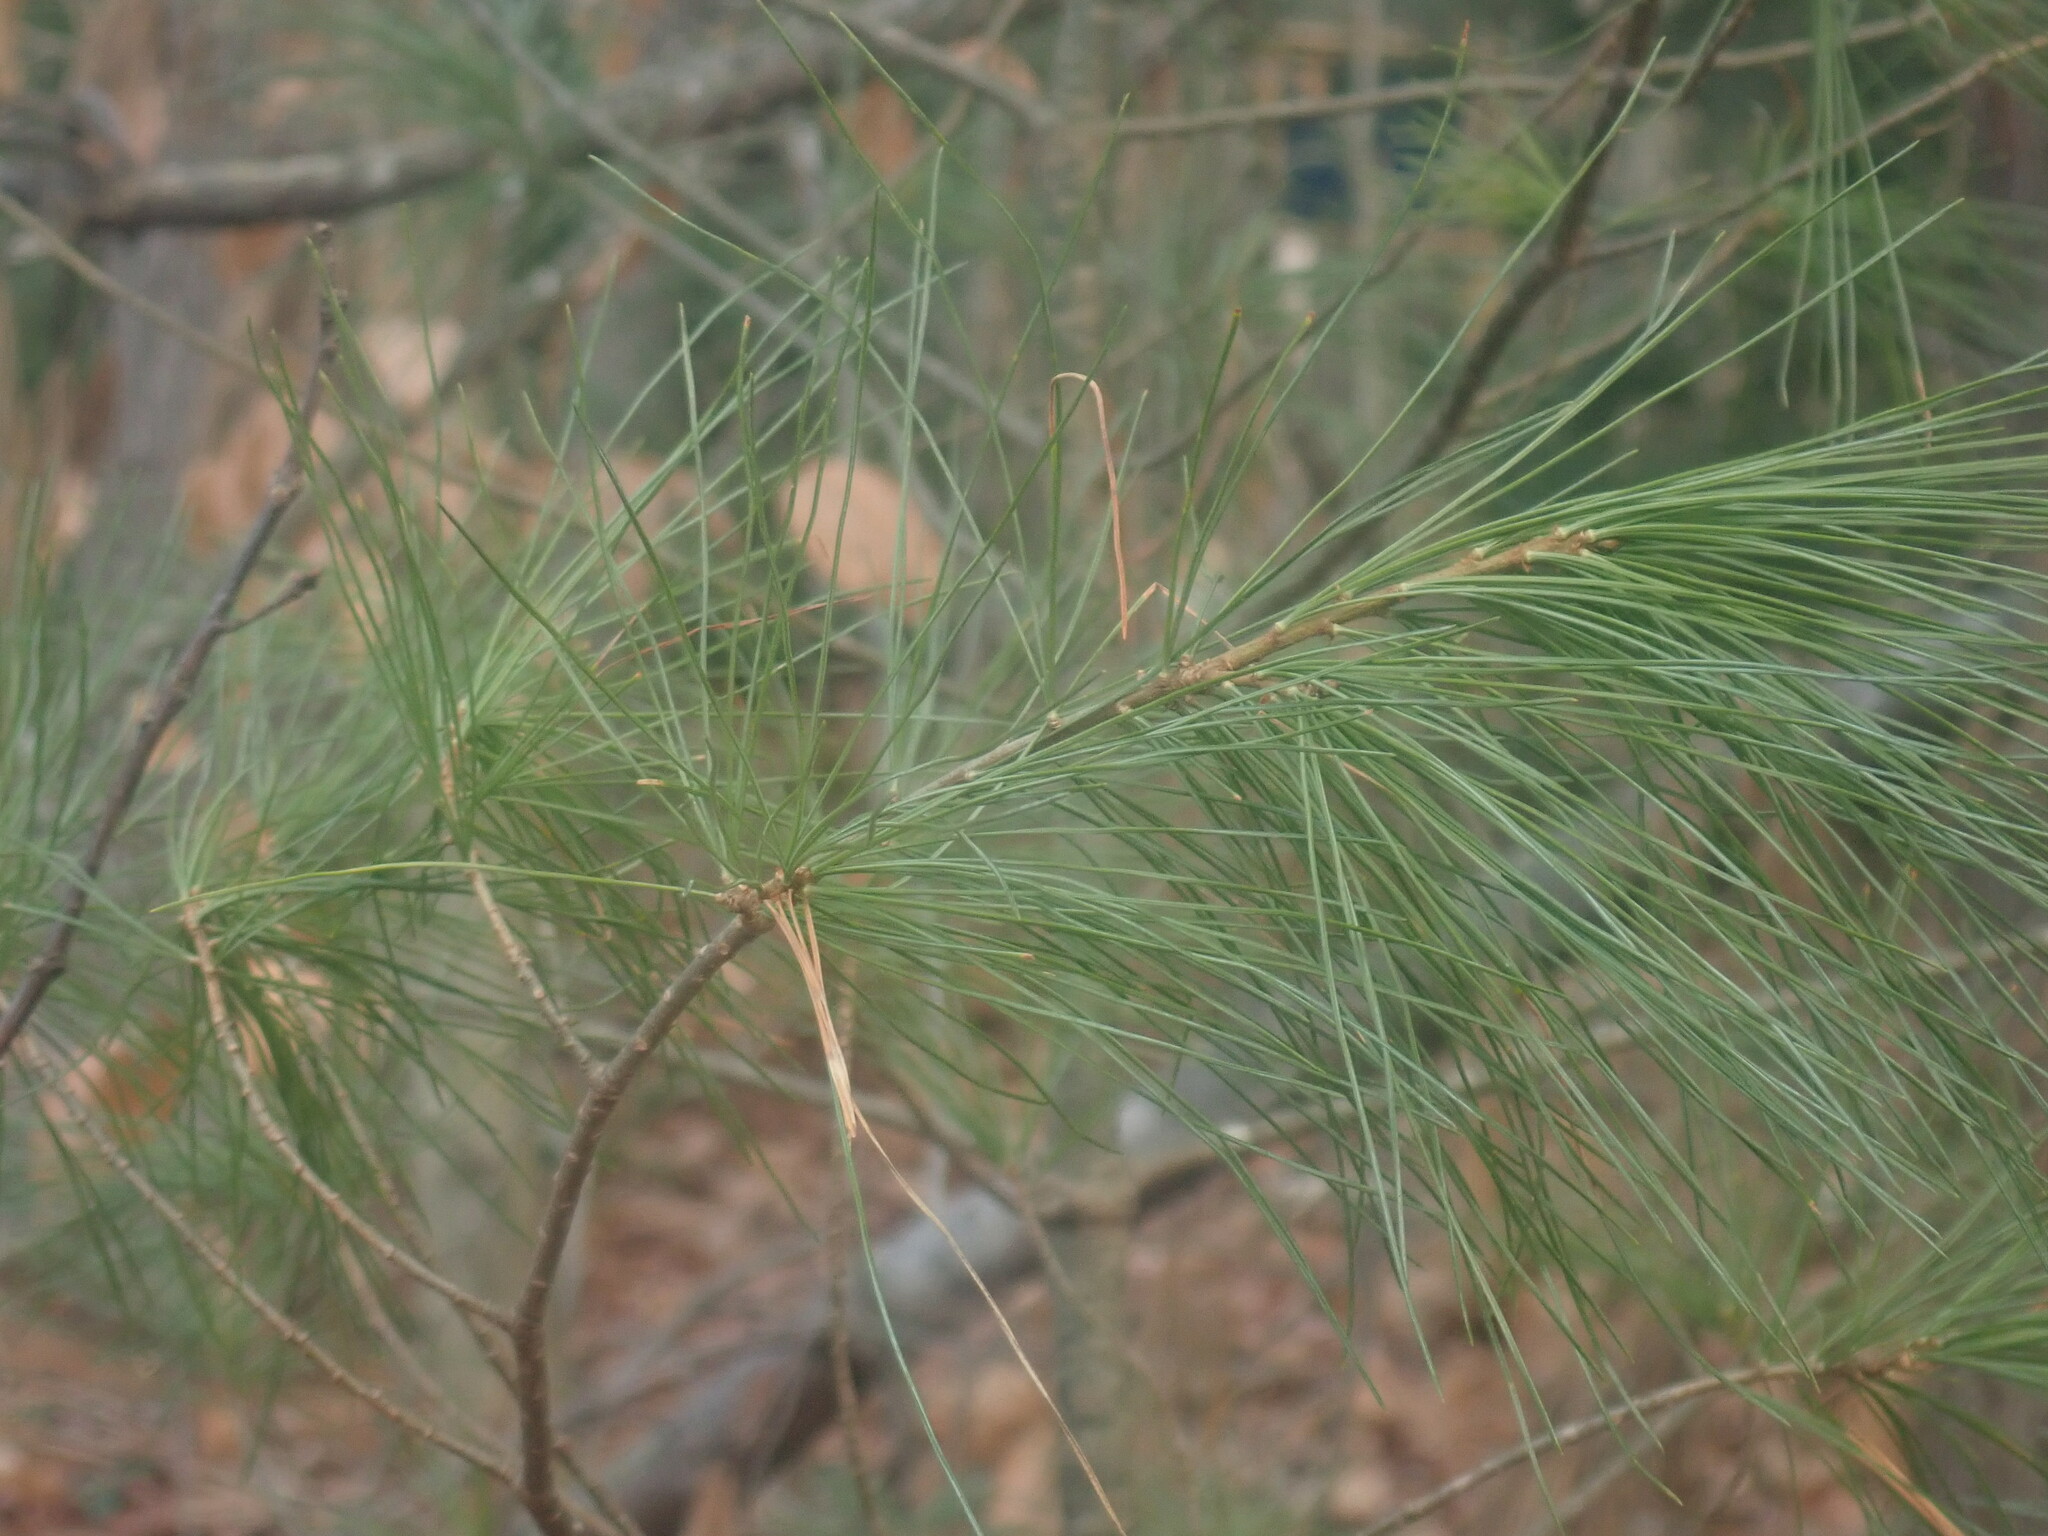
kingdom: Plantae
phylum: Tracheophyta
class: Pinopsida
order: Pinales
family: Pinaceae
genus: Pinus
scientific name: Pinus strobus
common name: Weymouth pine
